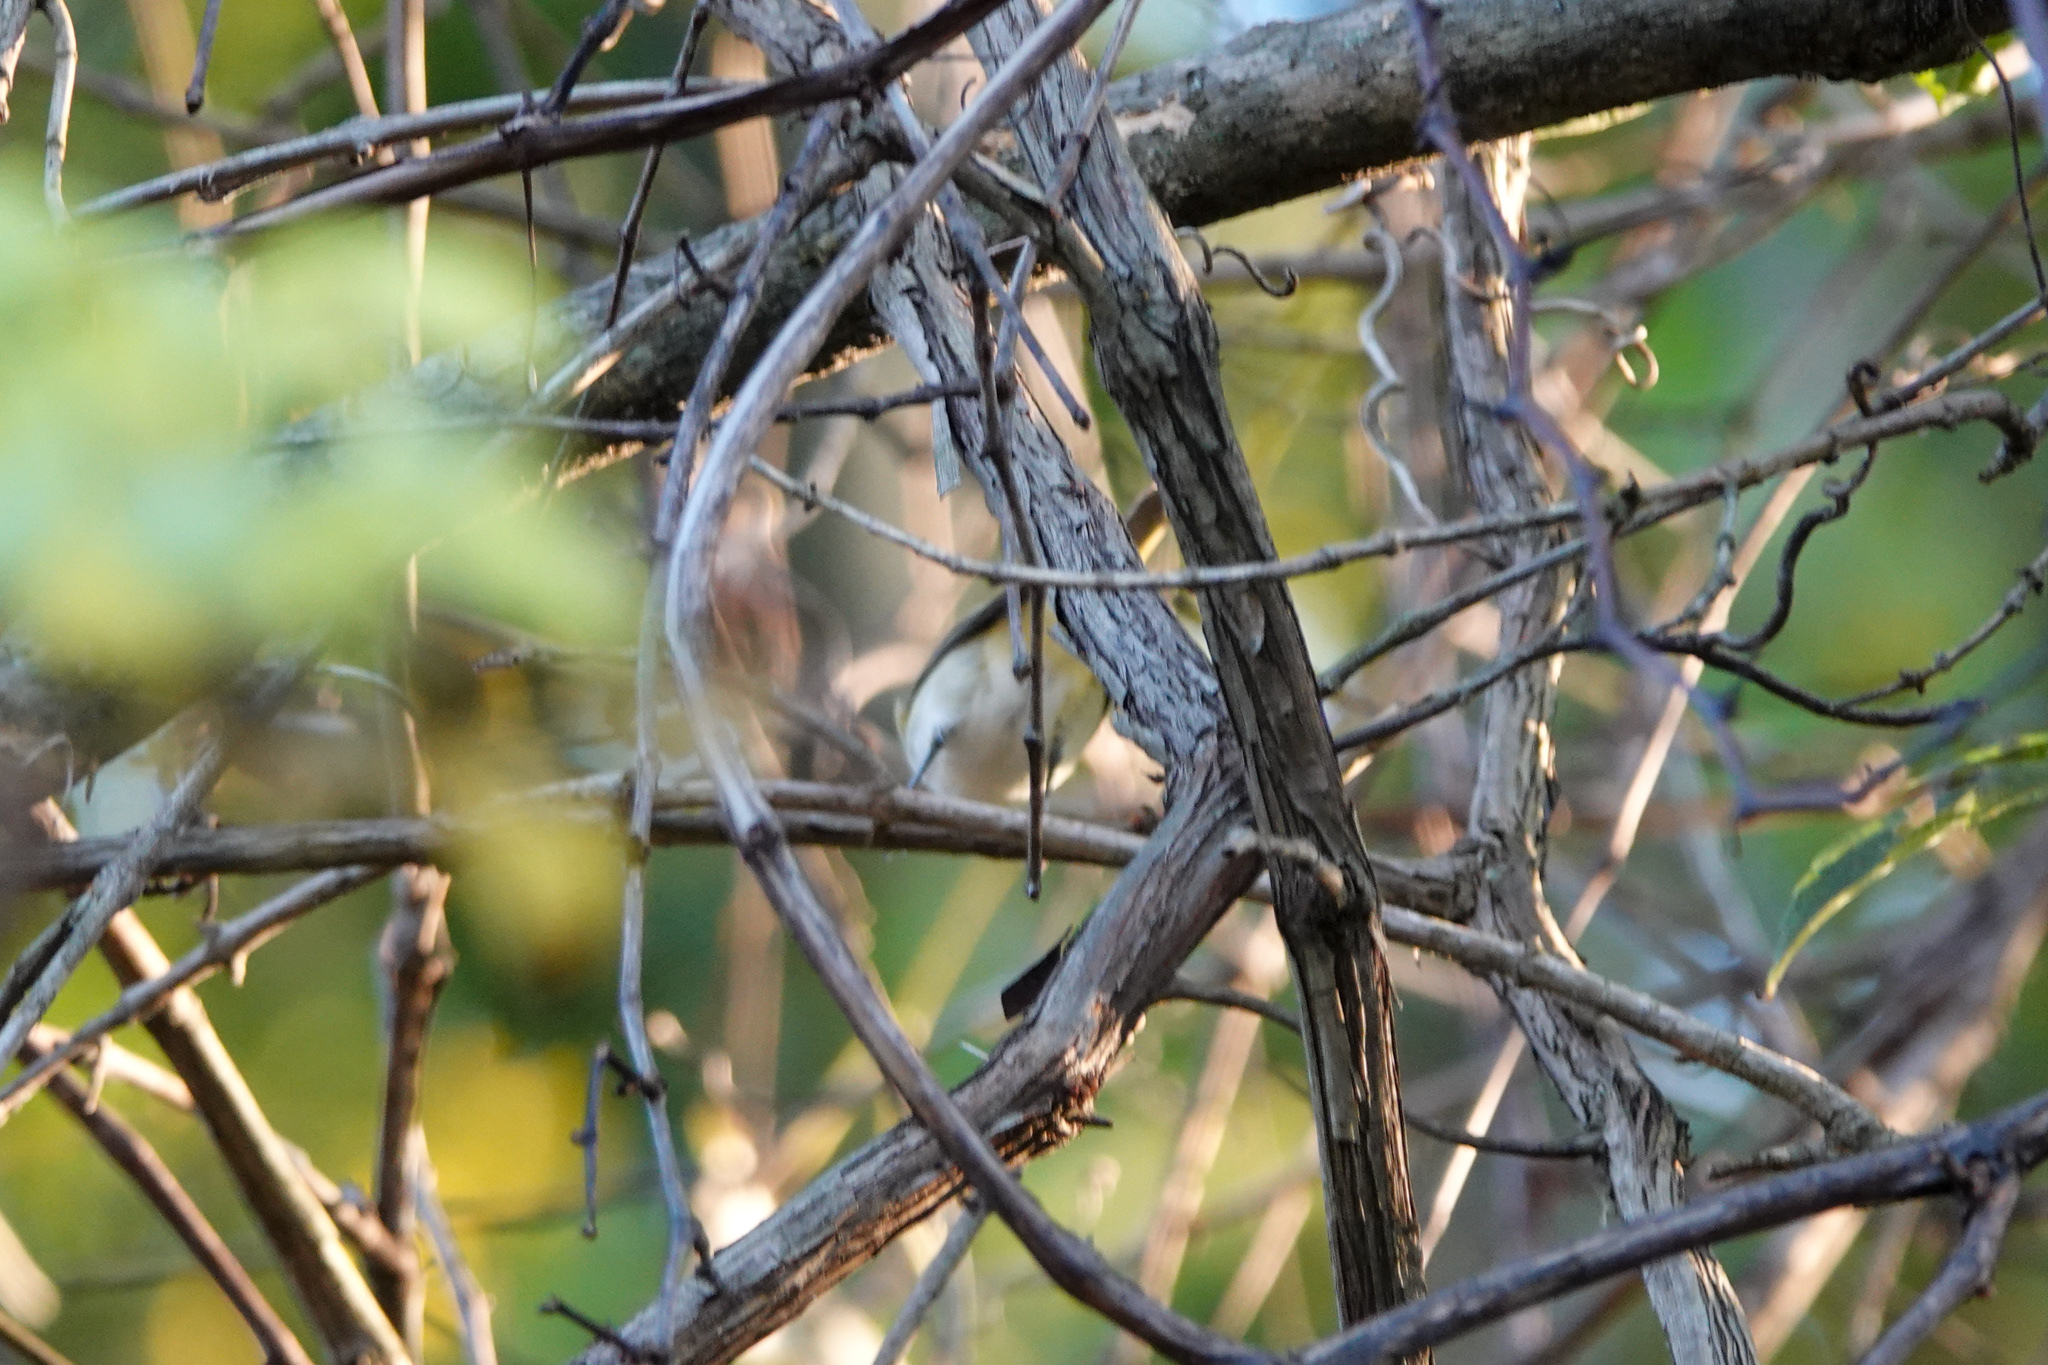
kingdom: Animalia
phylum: Chordata
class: Aves
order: Passeriformes
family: Vireonidae
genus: Vireo
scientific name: Vireo olivaceus
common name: Red-eyed vireo
